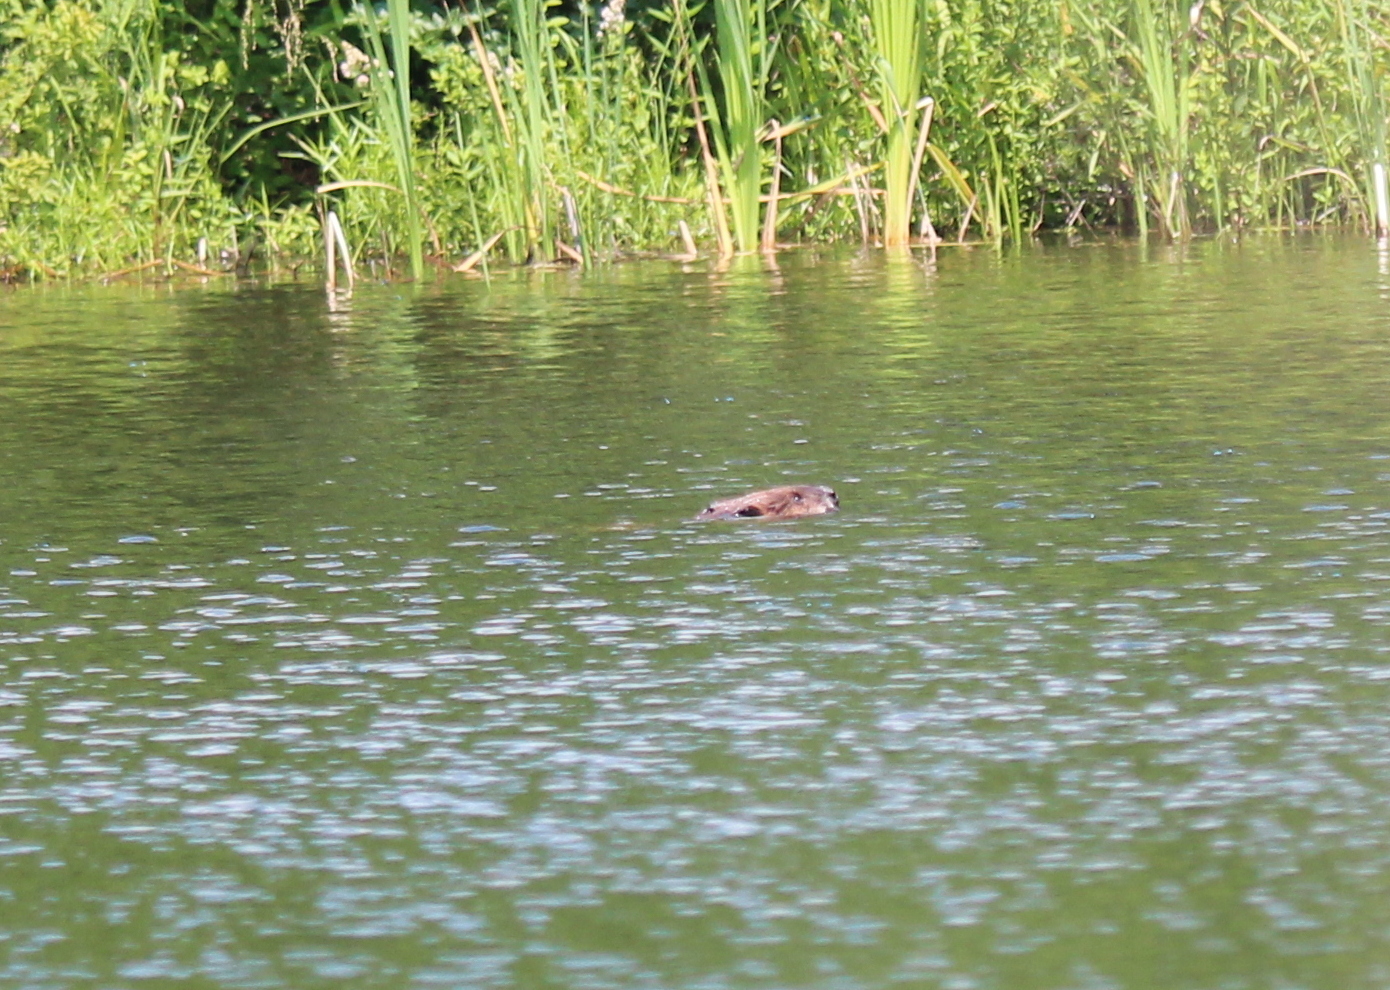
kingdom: Animalia
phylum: Chordata
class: Mammalia
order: Rodentia
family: Castoridae
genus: Castor
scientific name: Castor canadensis
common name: American beaver
